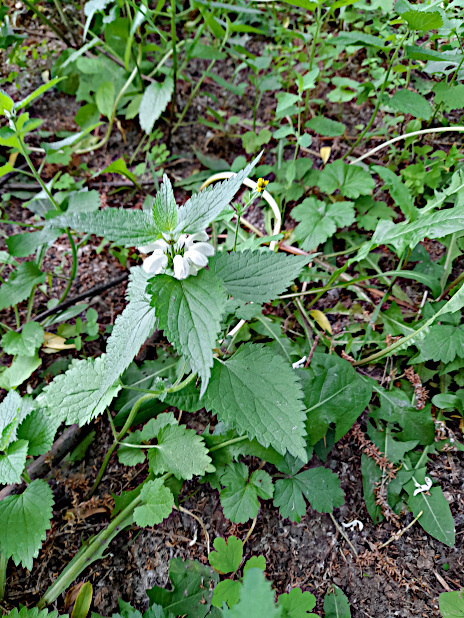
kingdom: Plantae
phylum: Tracheophyta
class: Magnoliopsida
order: Lamiales
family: Lamiaceae
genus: Lamium
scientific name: Lamium album
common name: White dead-nettle
